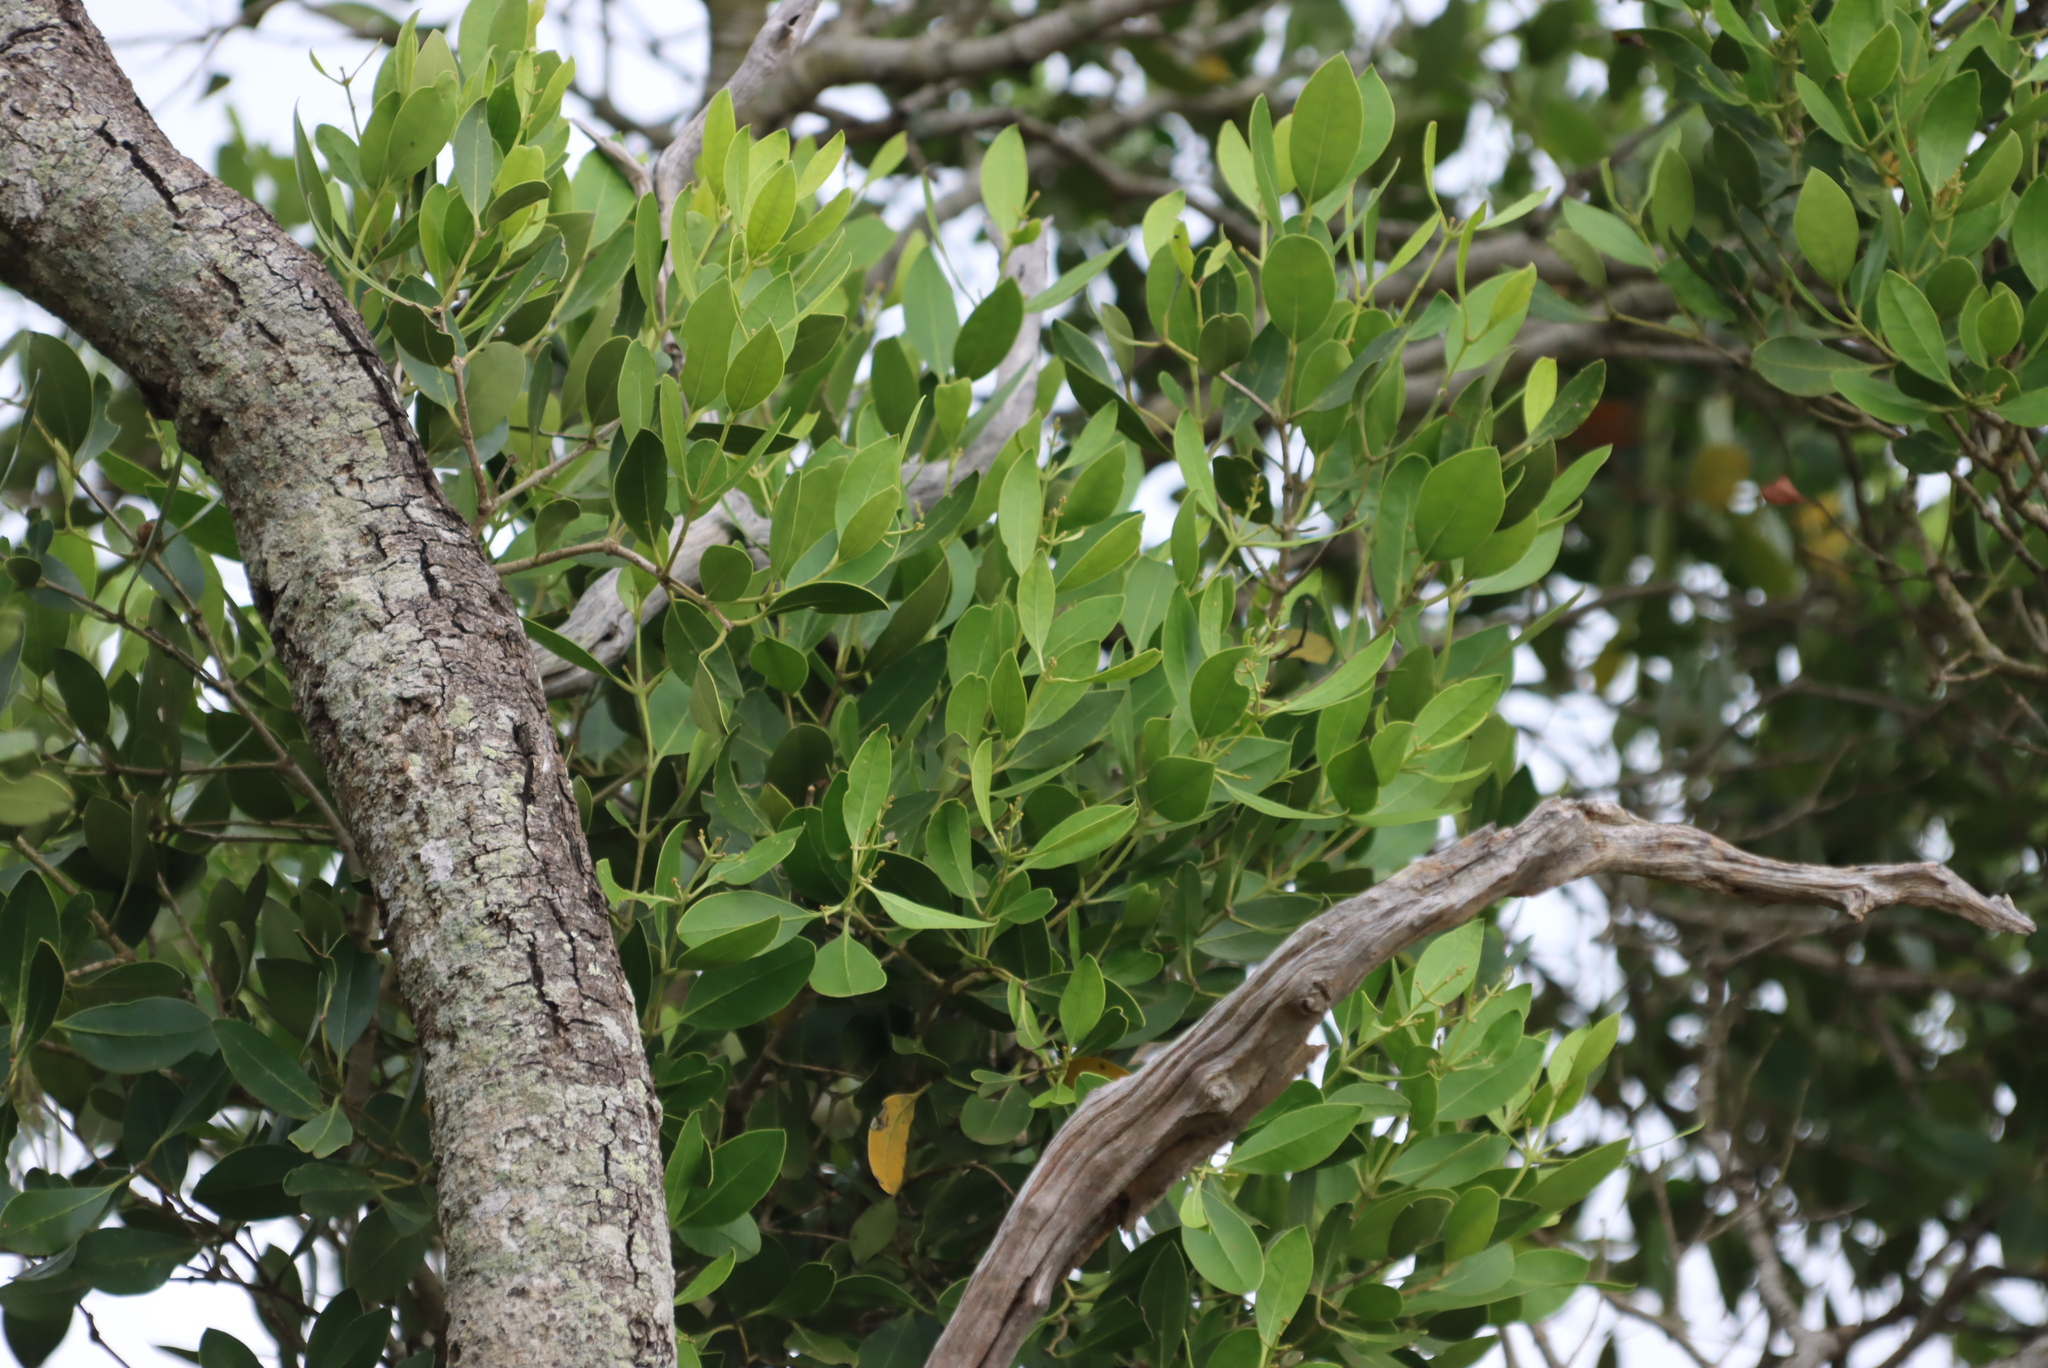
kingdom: Plantae
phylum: Tracheophyta
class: Magnoliopsida
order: Lamiales
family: Oleaceae
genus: Olea
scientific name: Olea capensis
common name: Black ironwood
